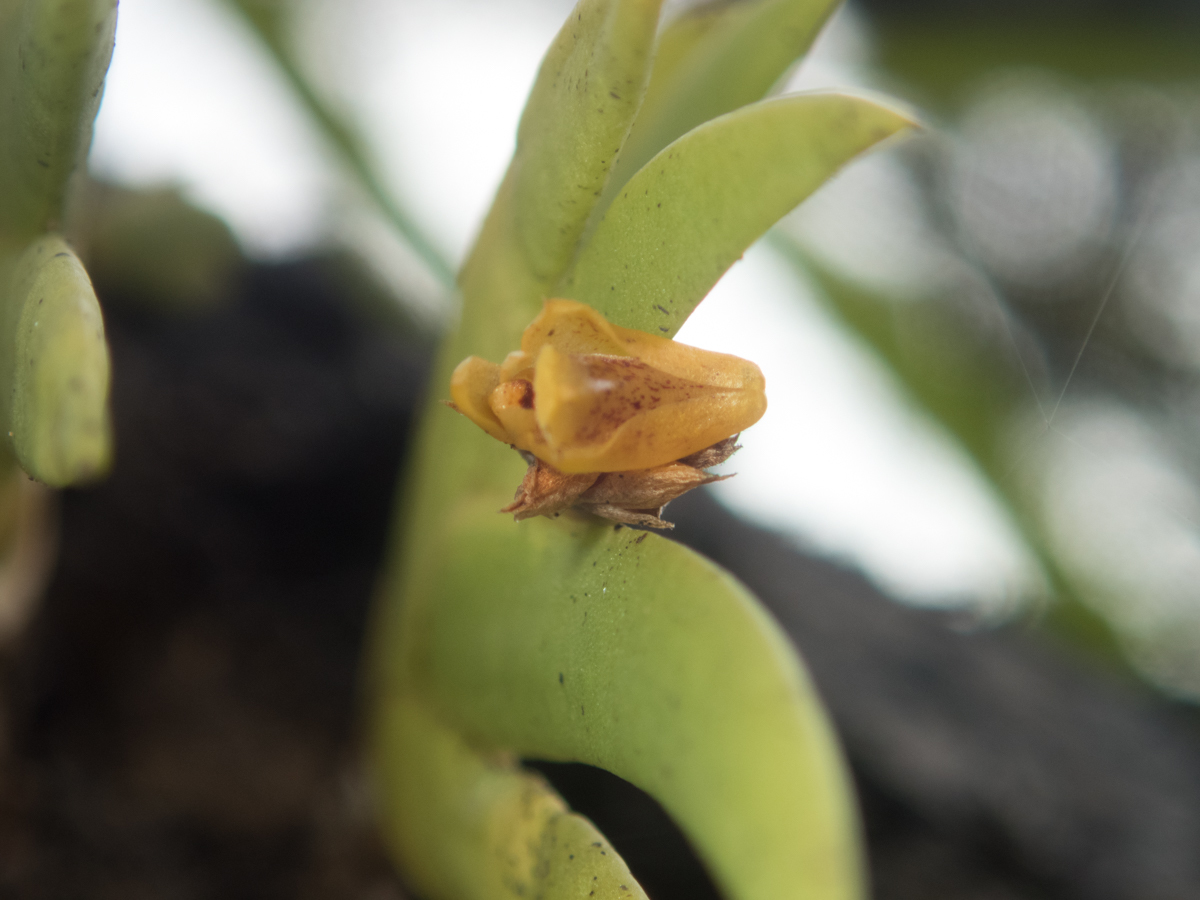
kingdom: Plantae
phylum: Tracheophyta
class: Liliopsida
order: Asparagales
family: Orchidaceae
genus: Oxystophyllum
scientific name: Oxystophyllum carnosum
